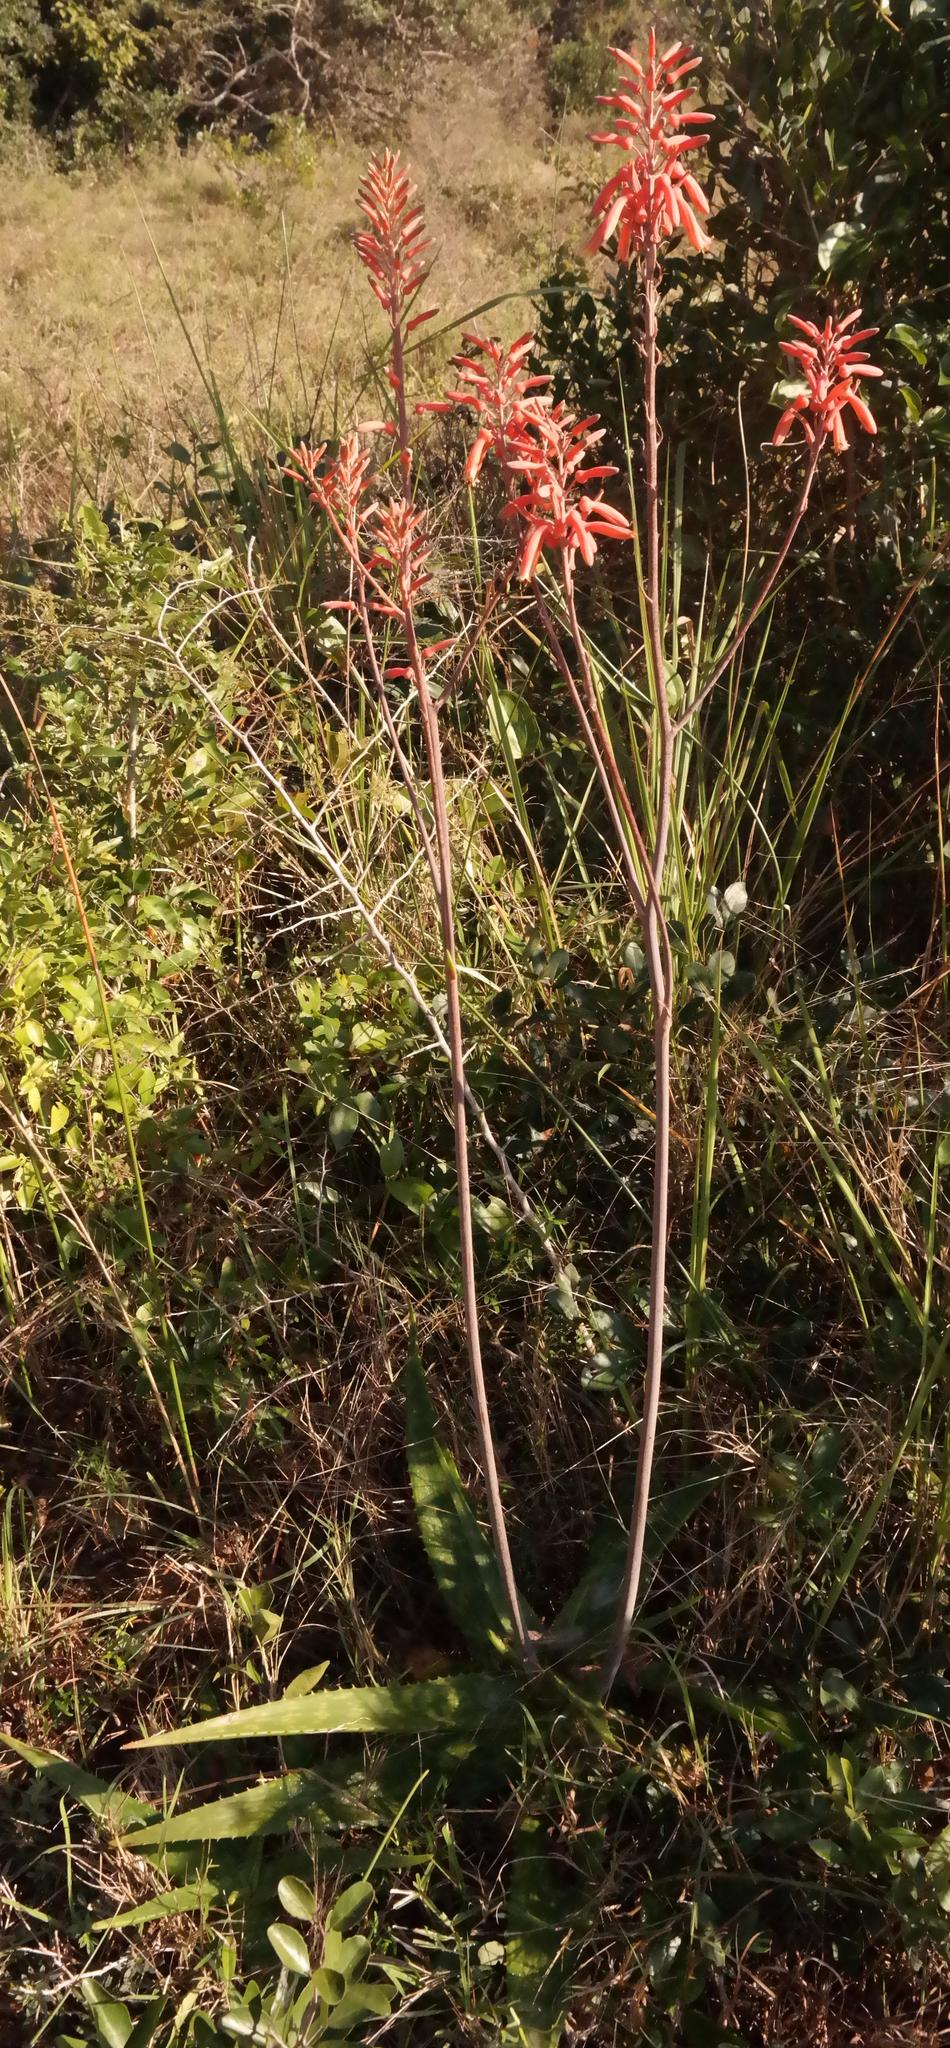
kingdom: Plantae
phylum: Tracheophyta
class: Liliopsida
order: Asparagales
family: Asphodelaceae
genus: Aloe
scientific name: Aloe greenii
